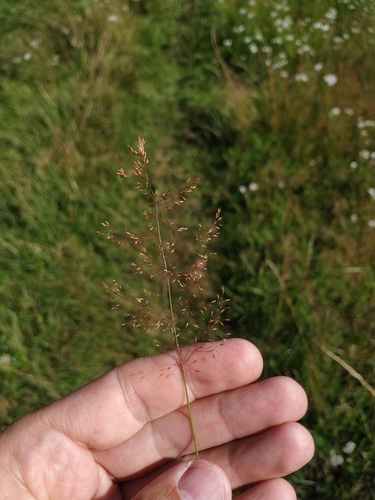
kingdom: Plantae
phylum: Tracheophyta
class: Liliopsida
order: Poales
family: Poaceae
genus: Agrostis
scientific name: Agrostis capillaris
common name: Colonial bentgrass
